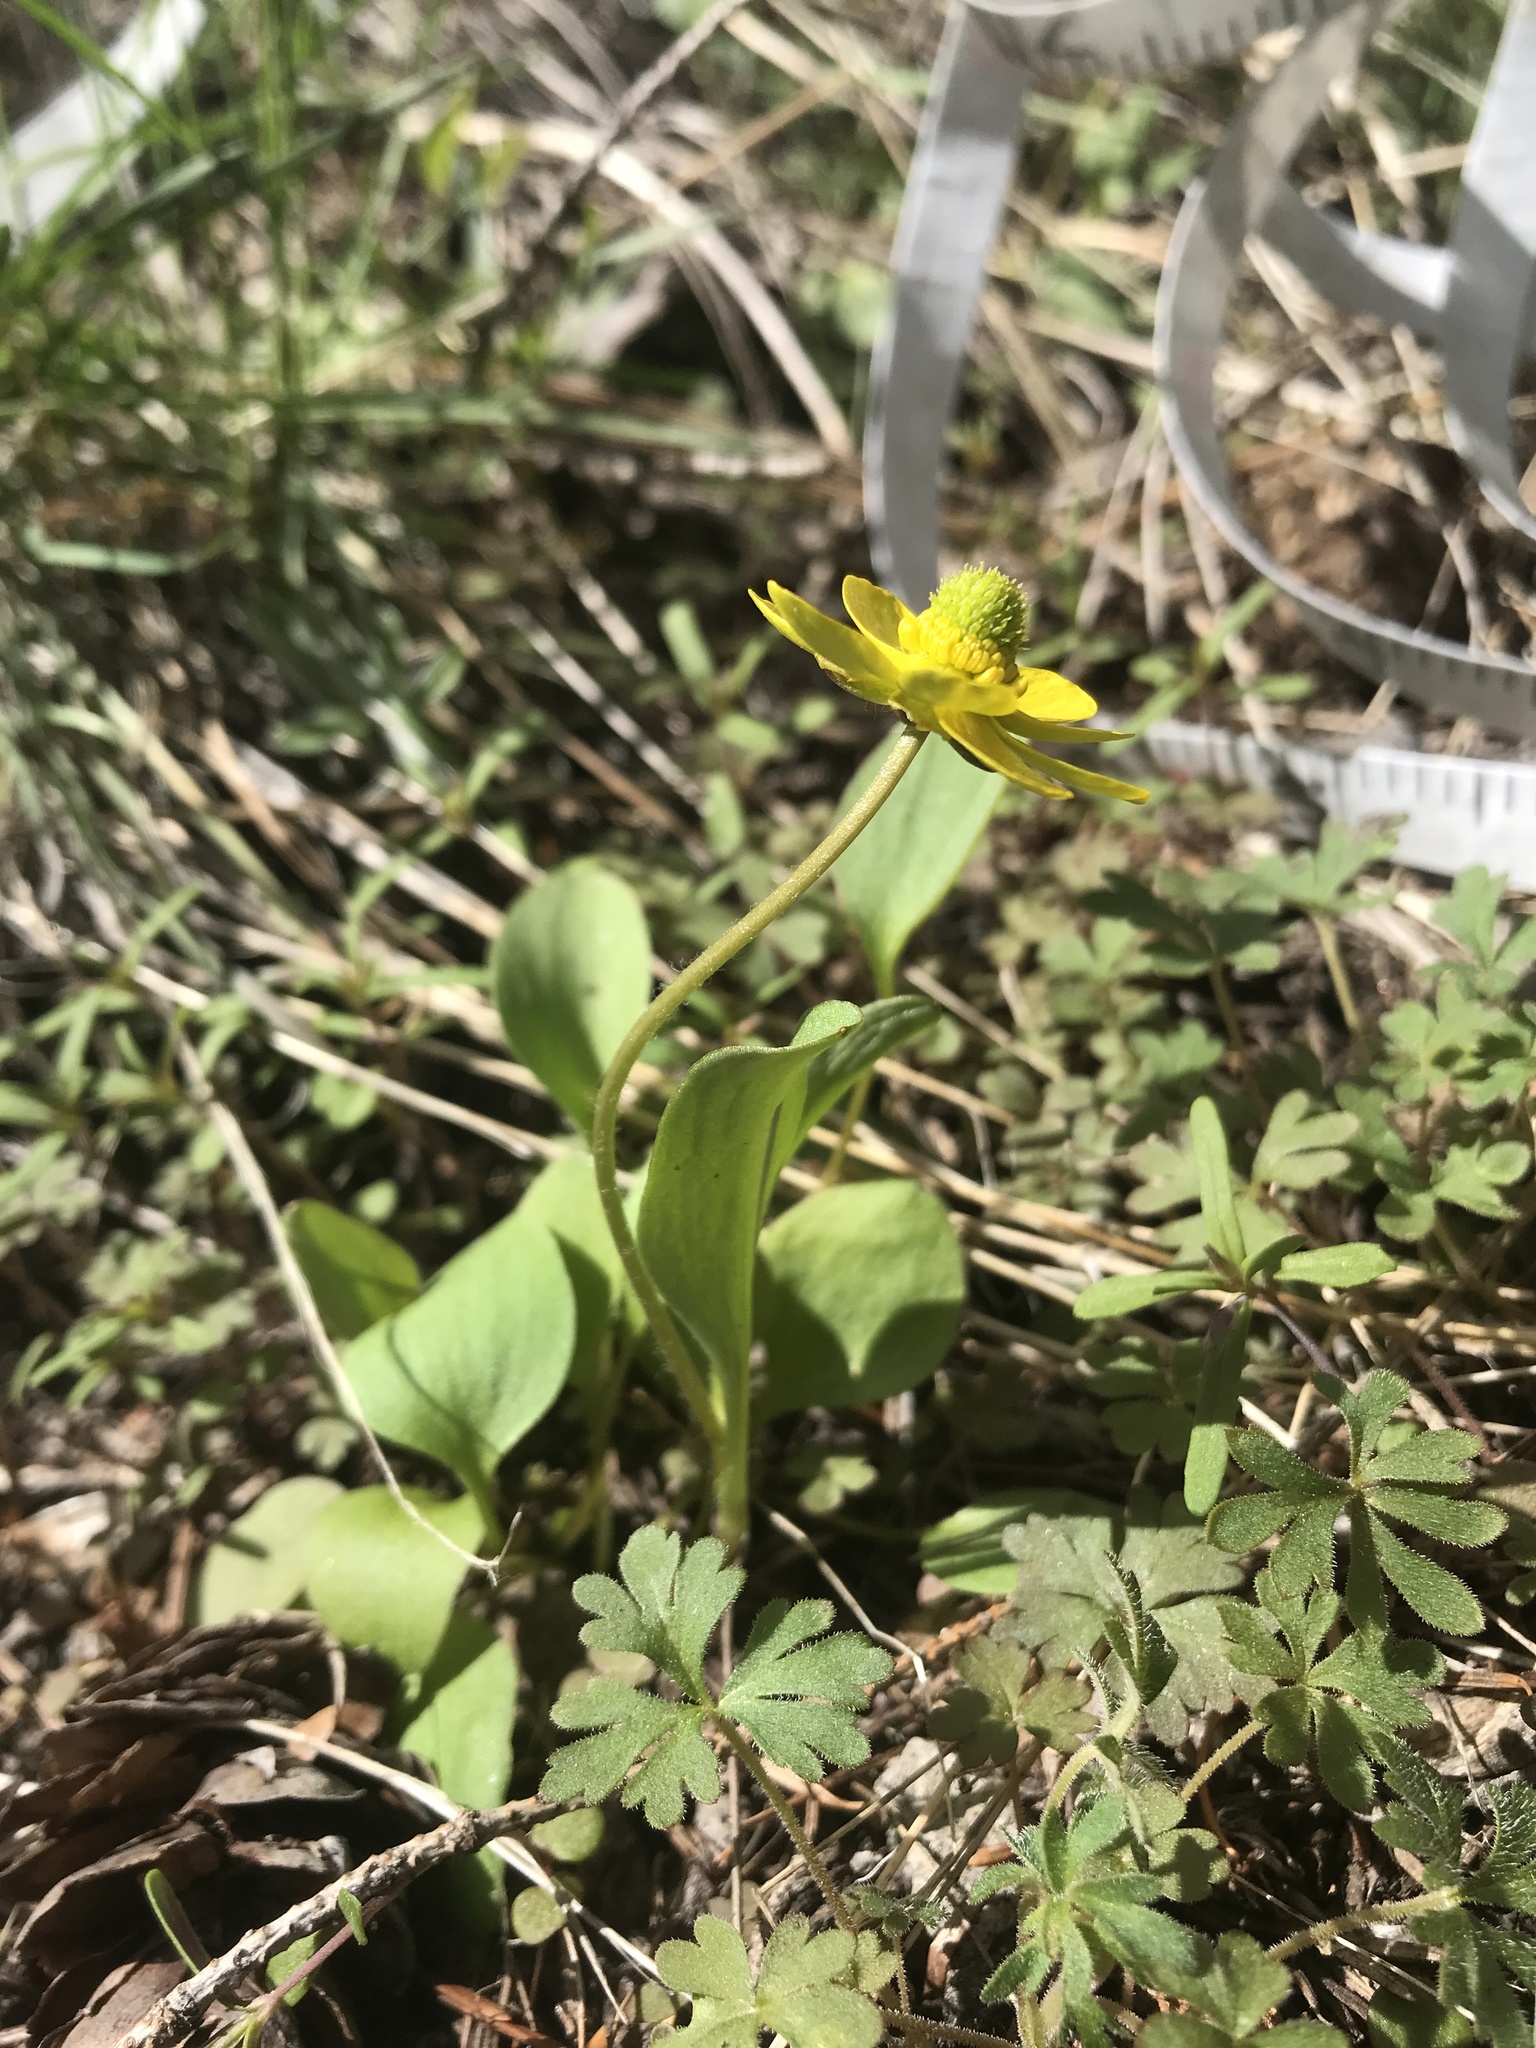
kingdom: Plantae
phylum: Tracheophyta
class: Magnoliopsida
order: Ranunculales
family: Ranunculaceae
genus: Ranunculus
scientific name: Ranunculus glaberrimus
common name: Sagebrush buttercup
